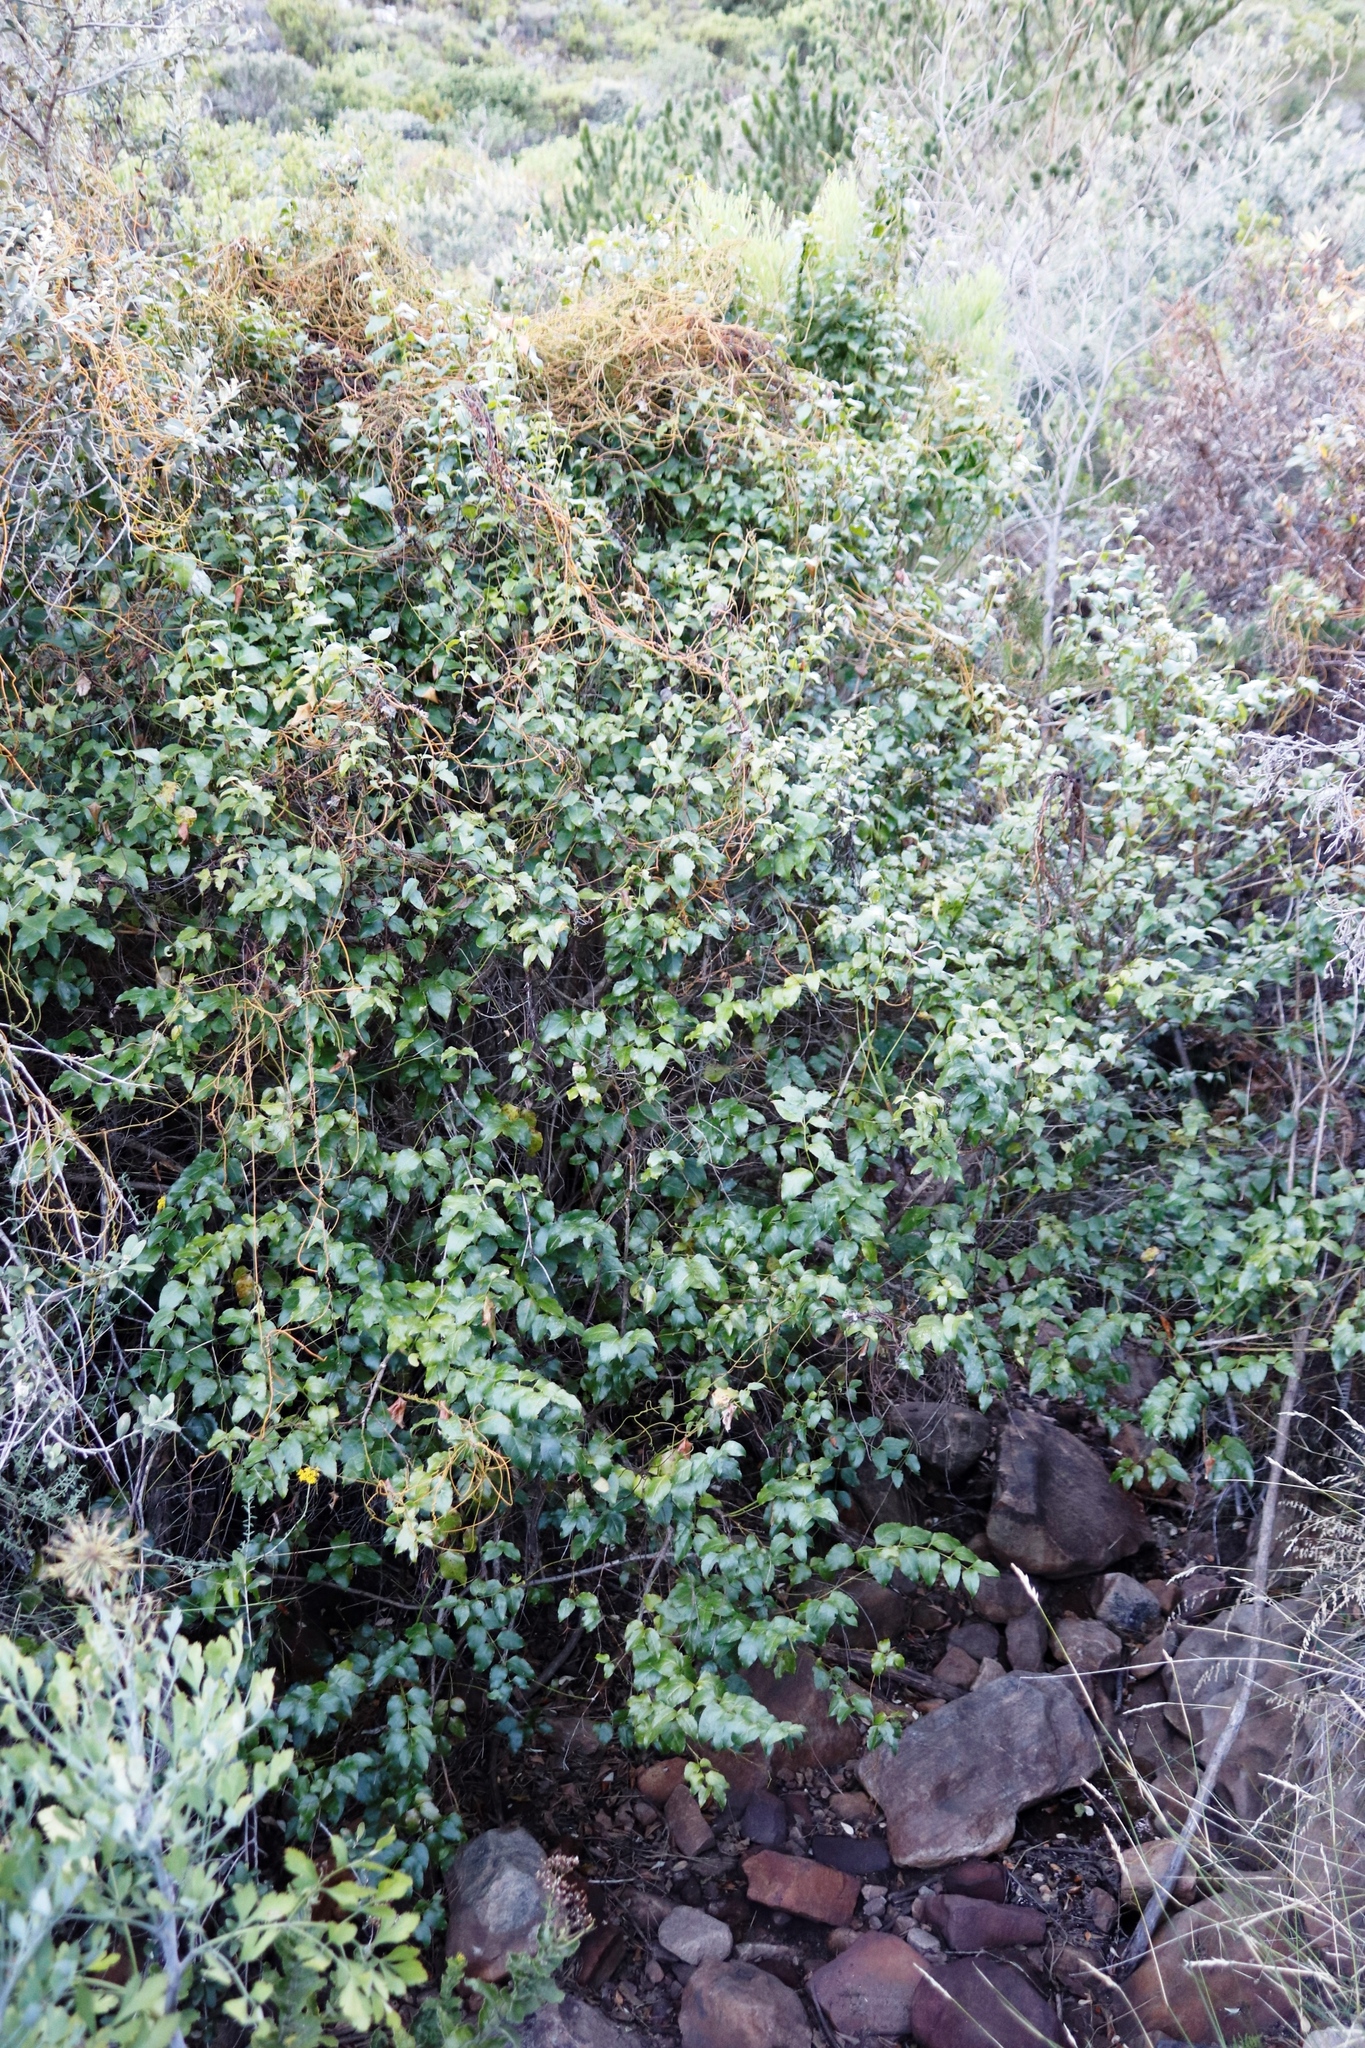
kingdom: Plantae
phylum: Tracheophyta
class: Magnoliopsida
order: Lamiales
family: Stilbaceae
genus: Halleria
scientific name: Halleria lucida
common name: Tree fuschia
